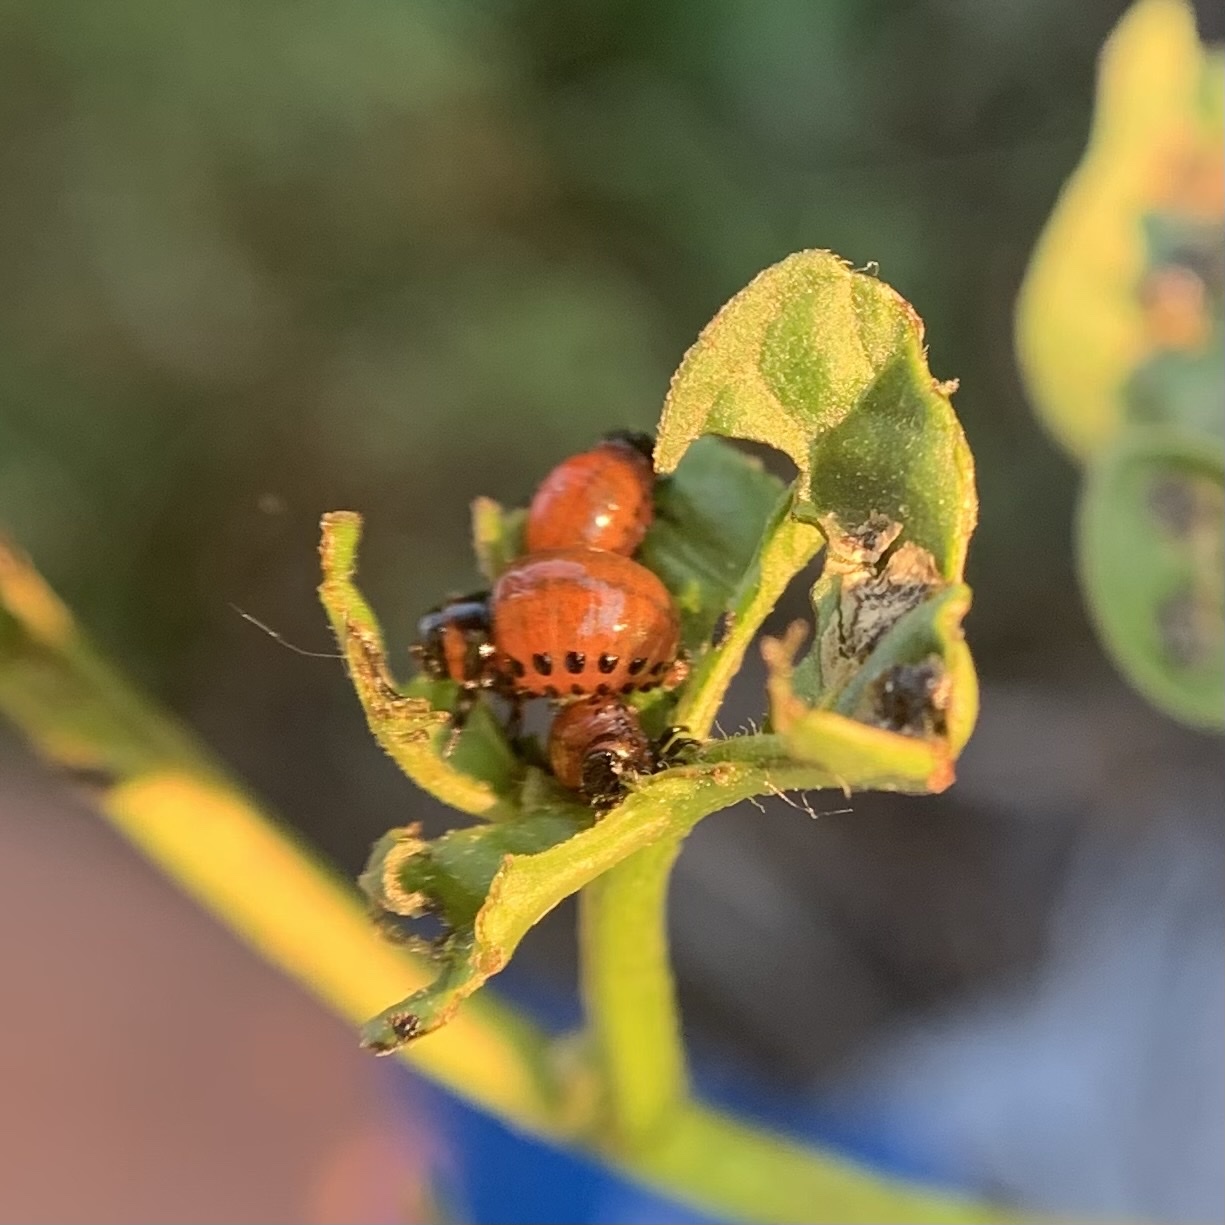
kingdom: Animalia
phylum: Arthropoda
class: Insecta
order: Coleoptera
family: Chrysomelidae
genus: Leptinotarsa
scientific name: Leptinotarsa decemlineata
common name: Colorado potato beetle
